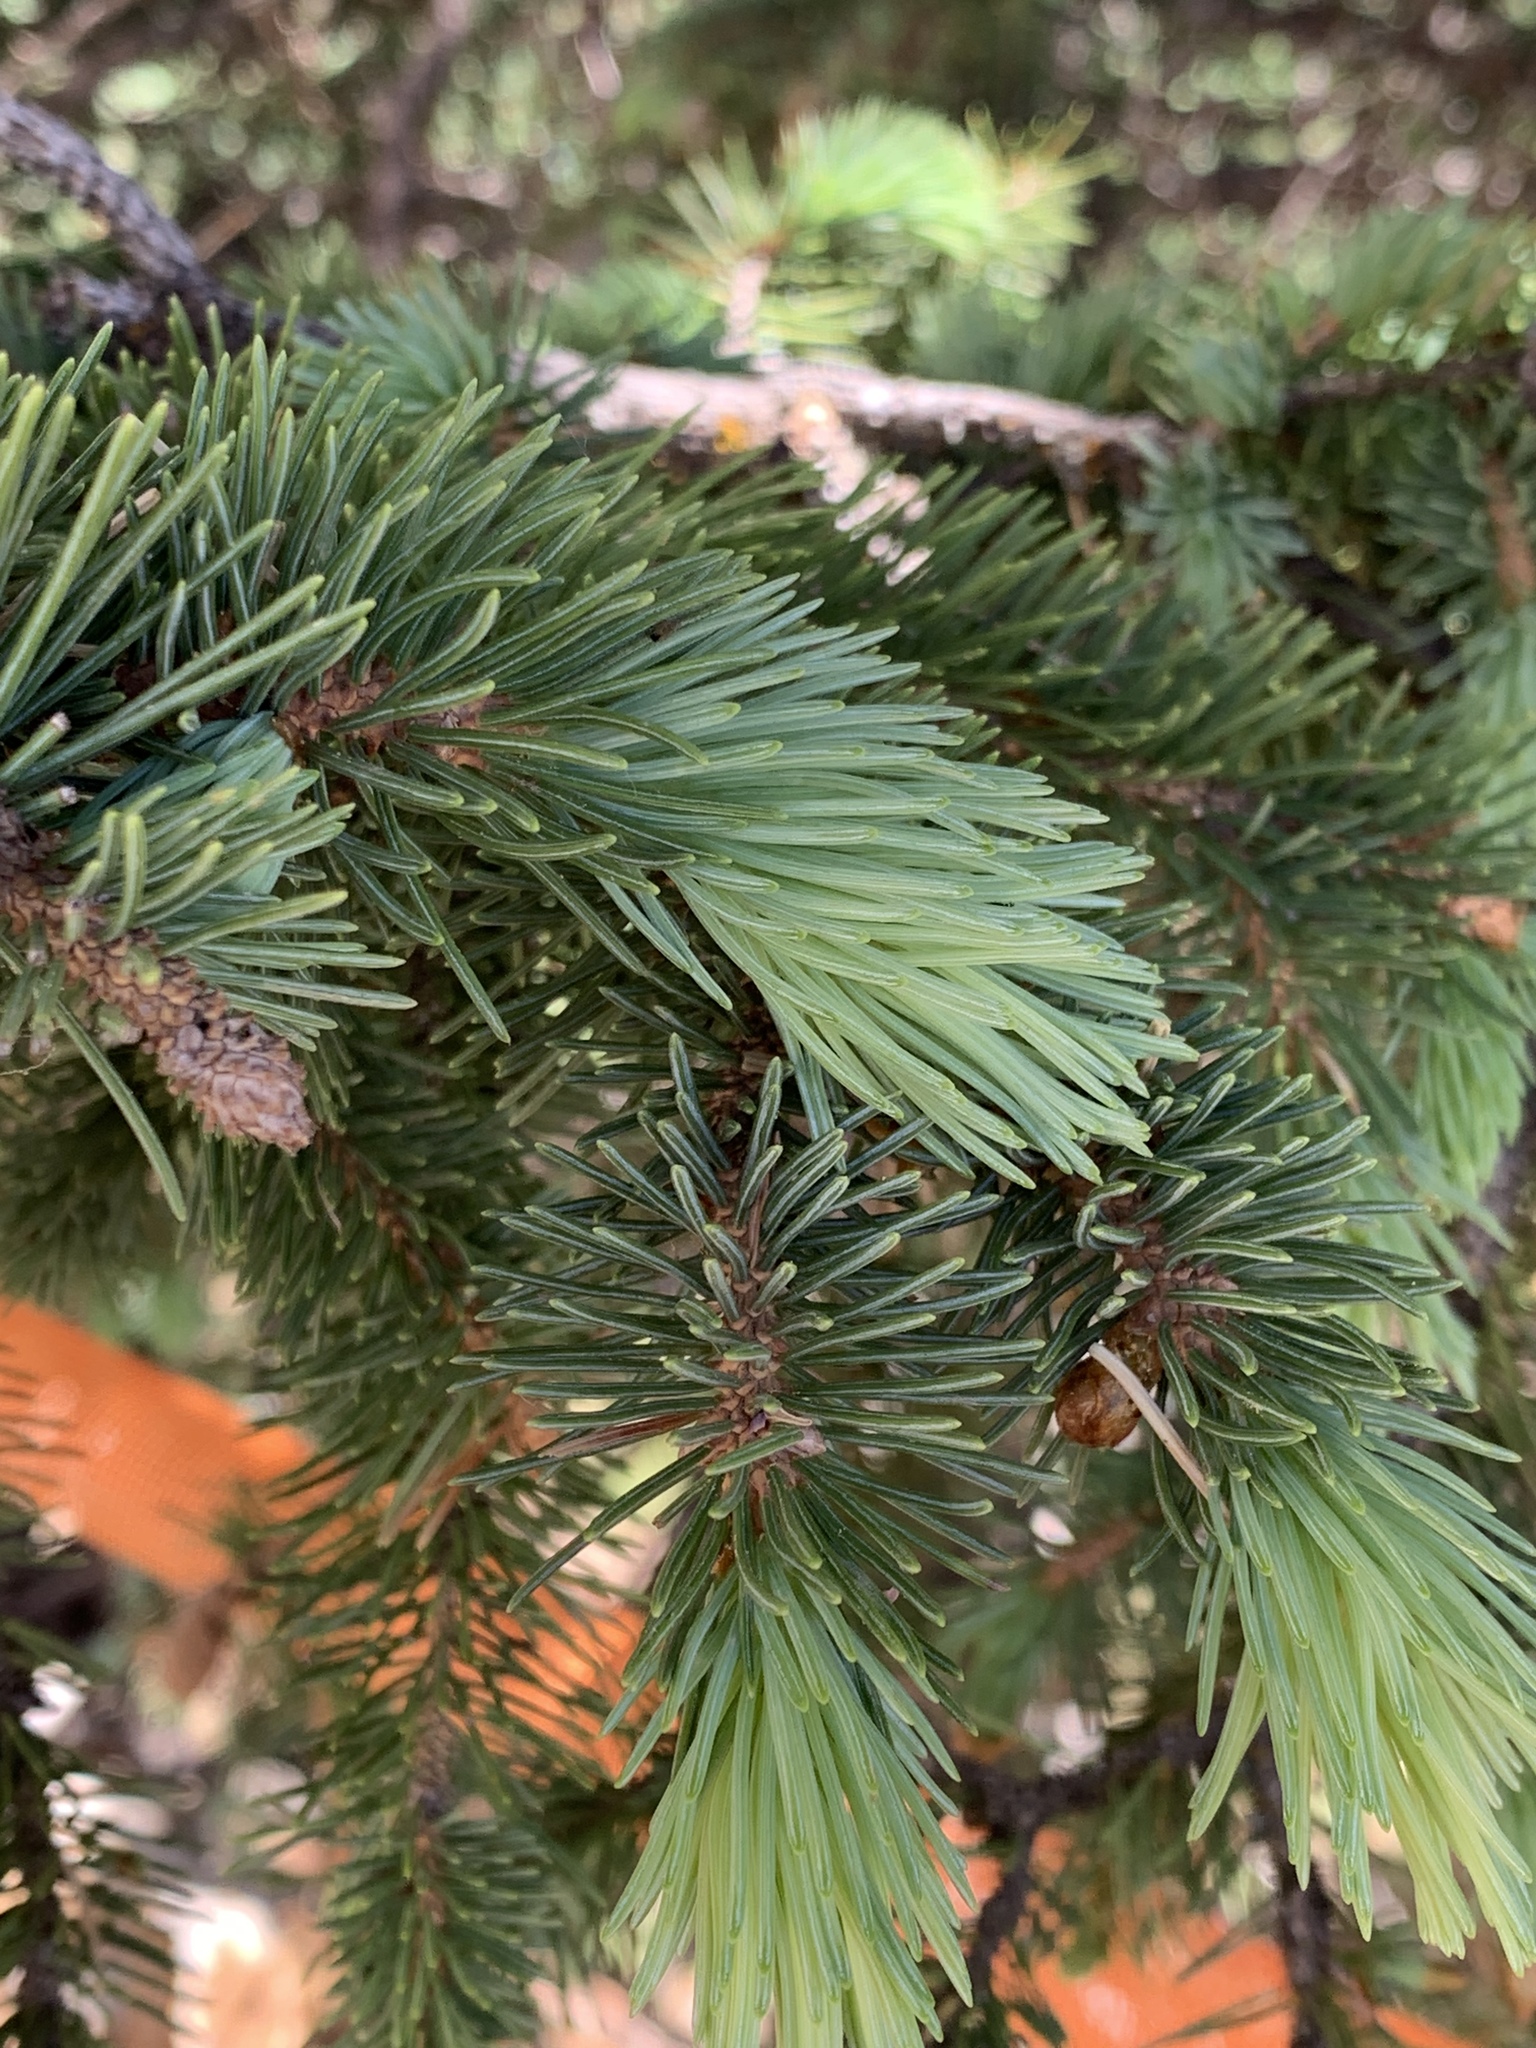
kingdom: Plantae
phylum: Tracheophyta
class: Pinopsida
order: Pinales
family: Pinaceae
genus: Picea
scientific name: Picea engelmannii
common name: Engelmann spruce
